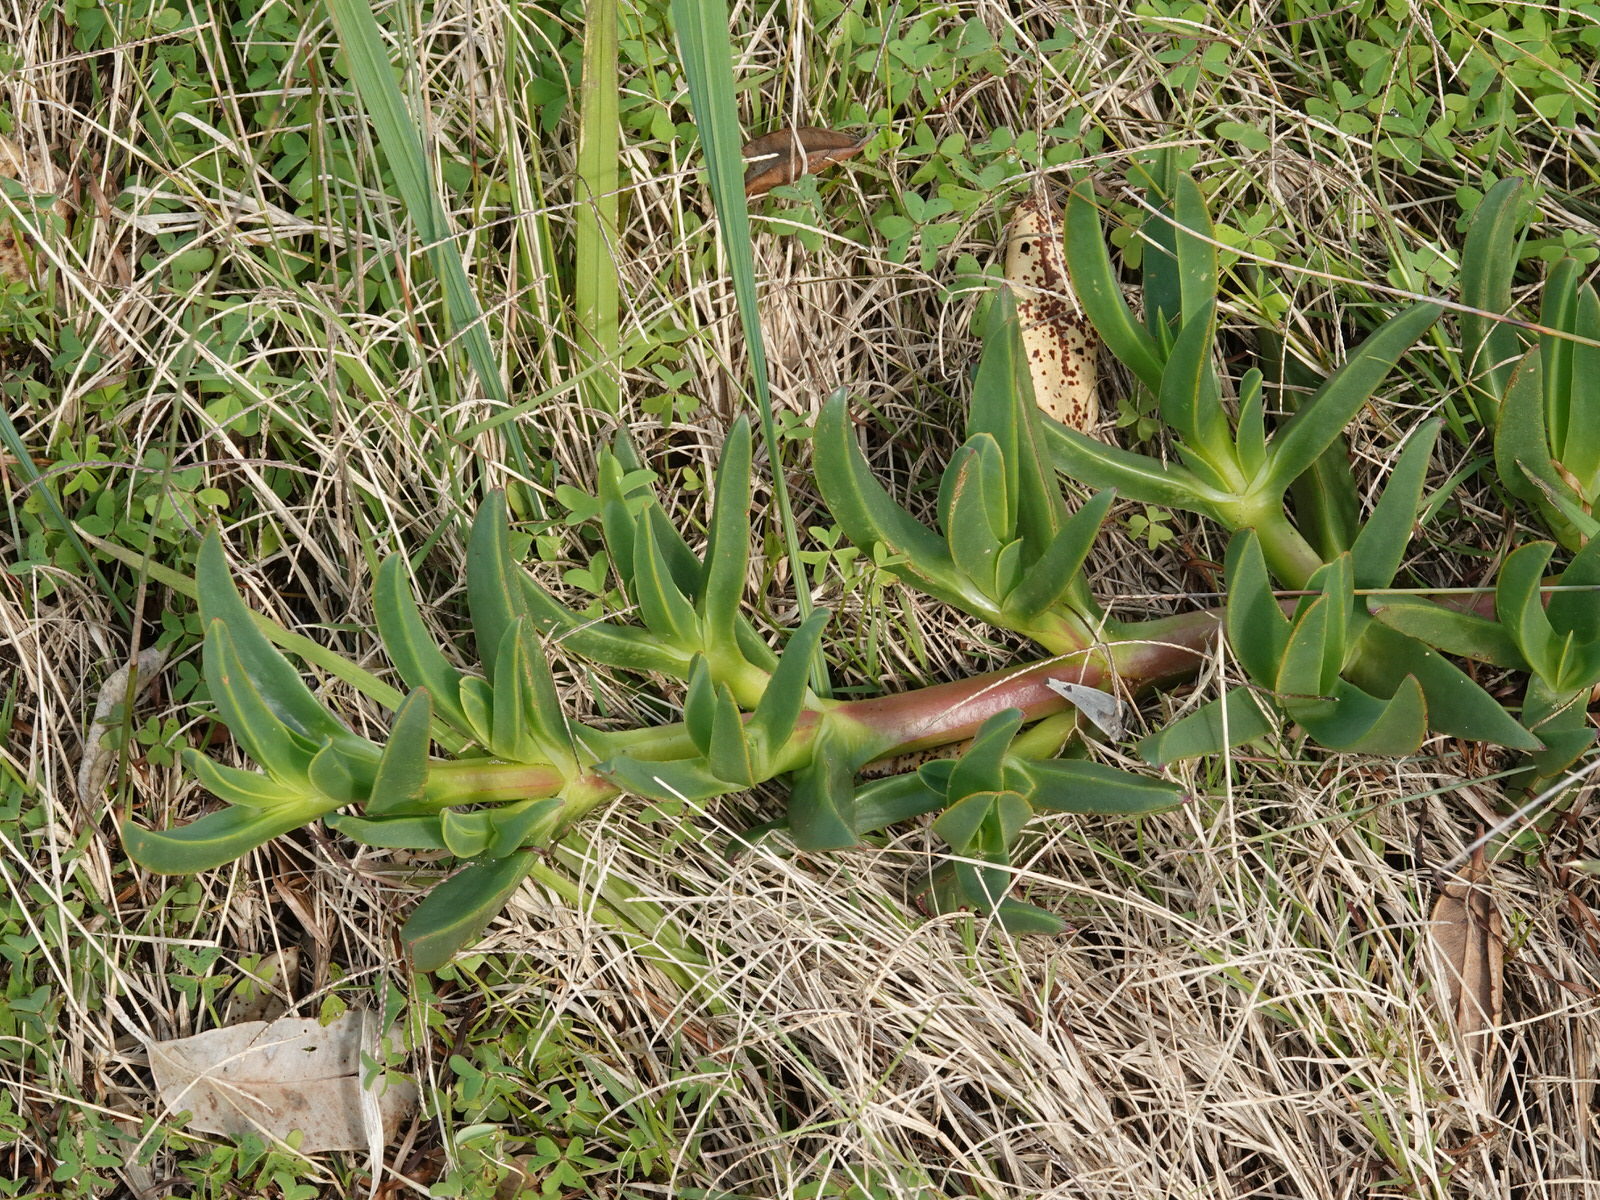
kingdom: Plantae
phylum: Tracheophyta
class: Magnoliopsida
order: Caryophyllales
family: Aizoaceae
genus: Carpobrotus
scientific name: Carpobrotus edulis
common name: Hottentot-fig
